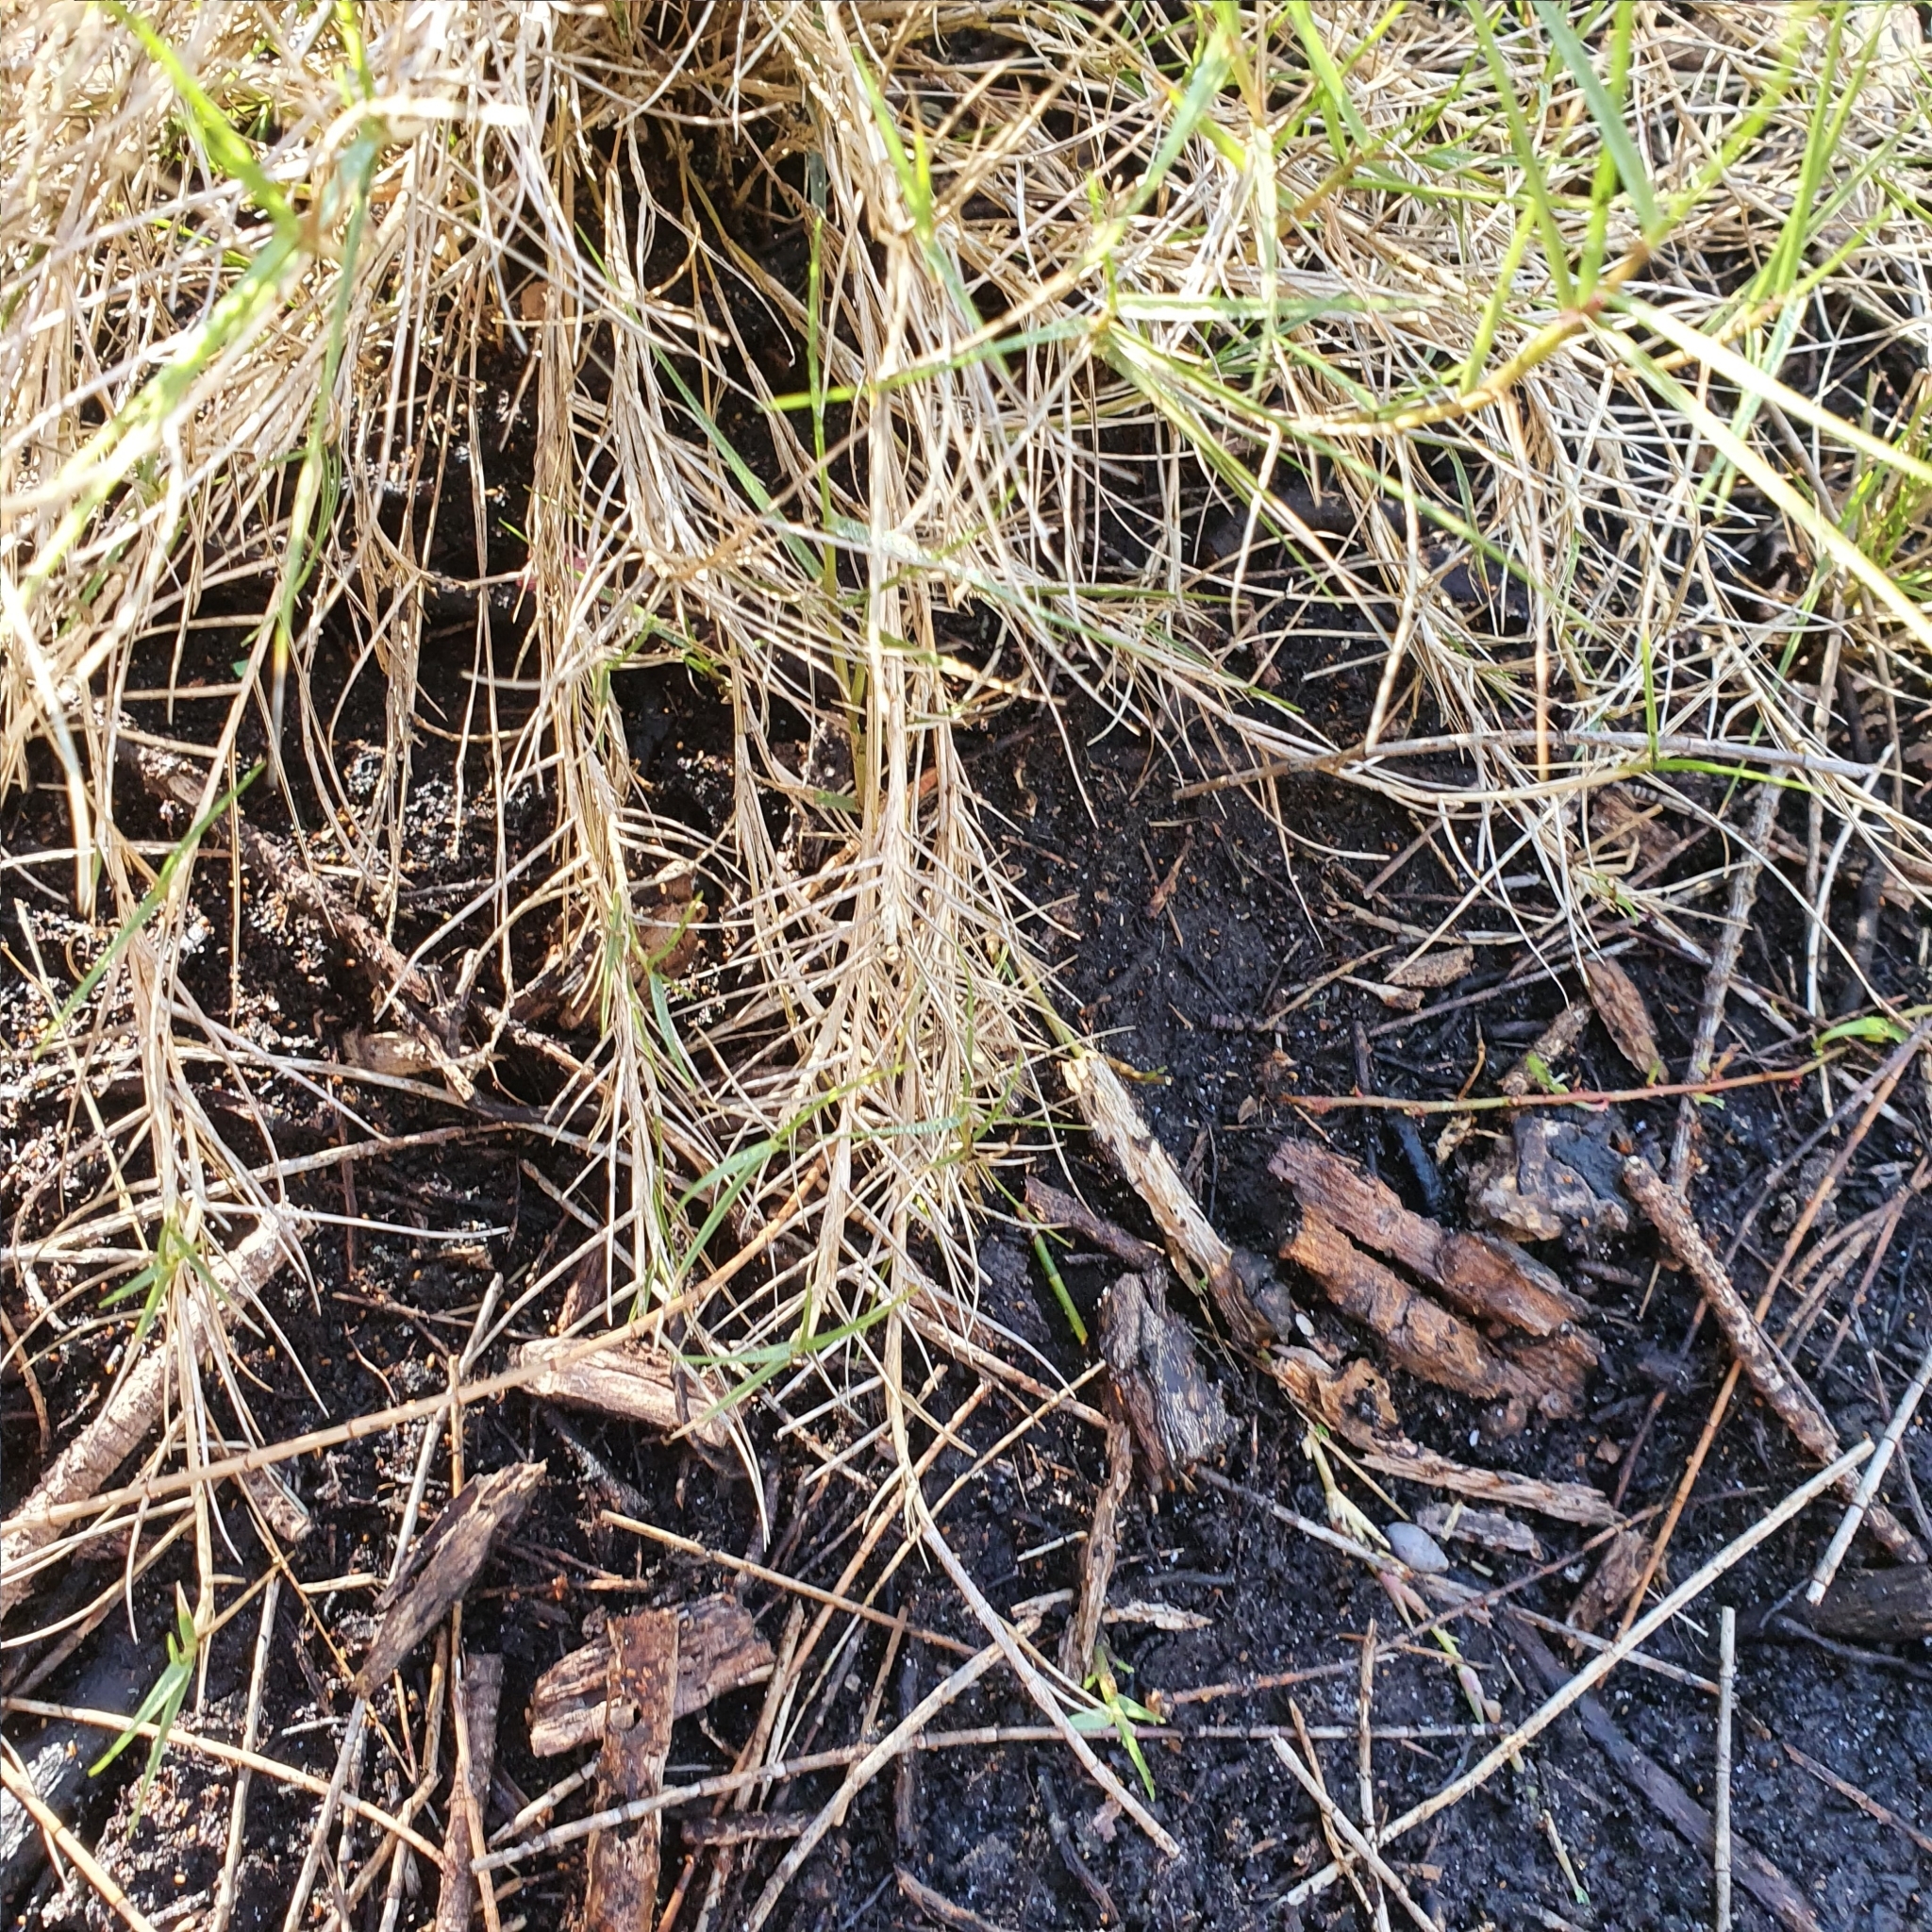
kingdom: Plantae
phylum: Tracheophyta
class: Liliopsida
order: Poales
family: Poaceae
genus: Sporobolus
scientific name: Sporobolus virginicus
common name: Beach dropseed
